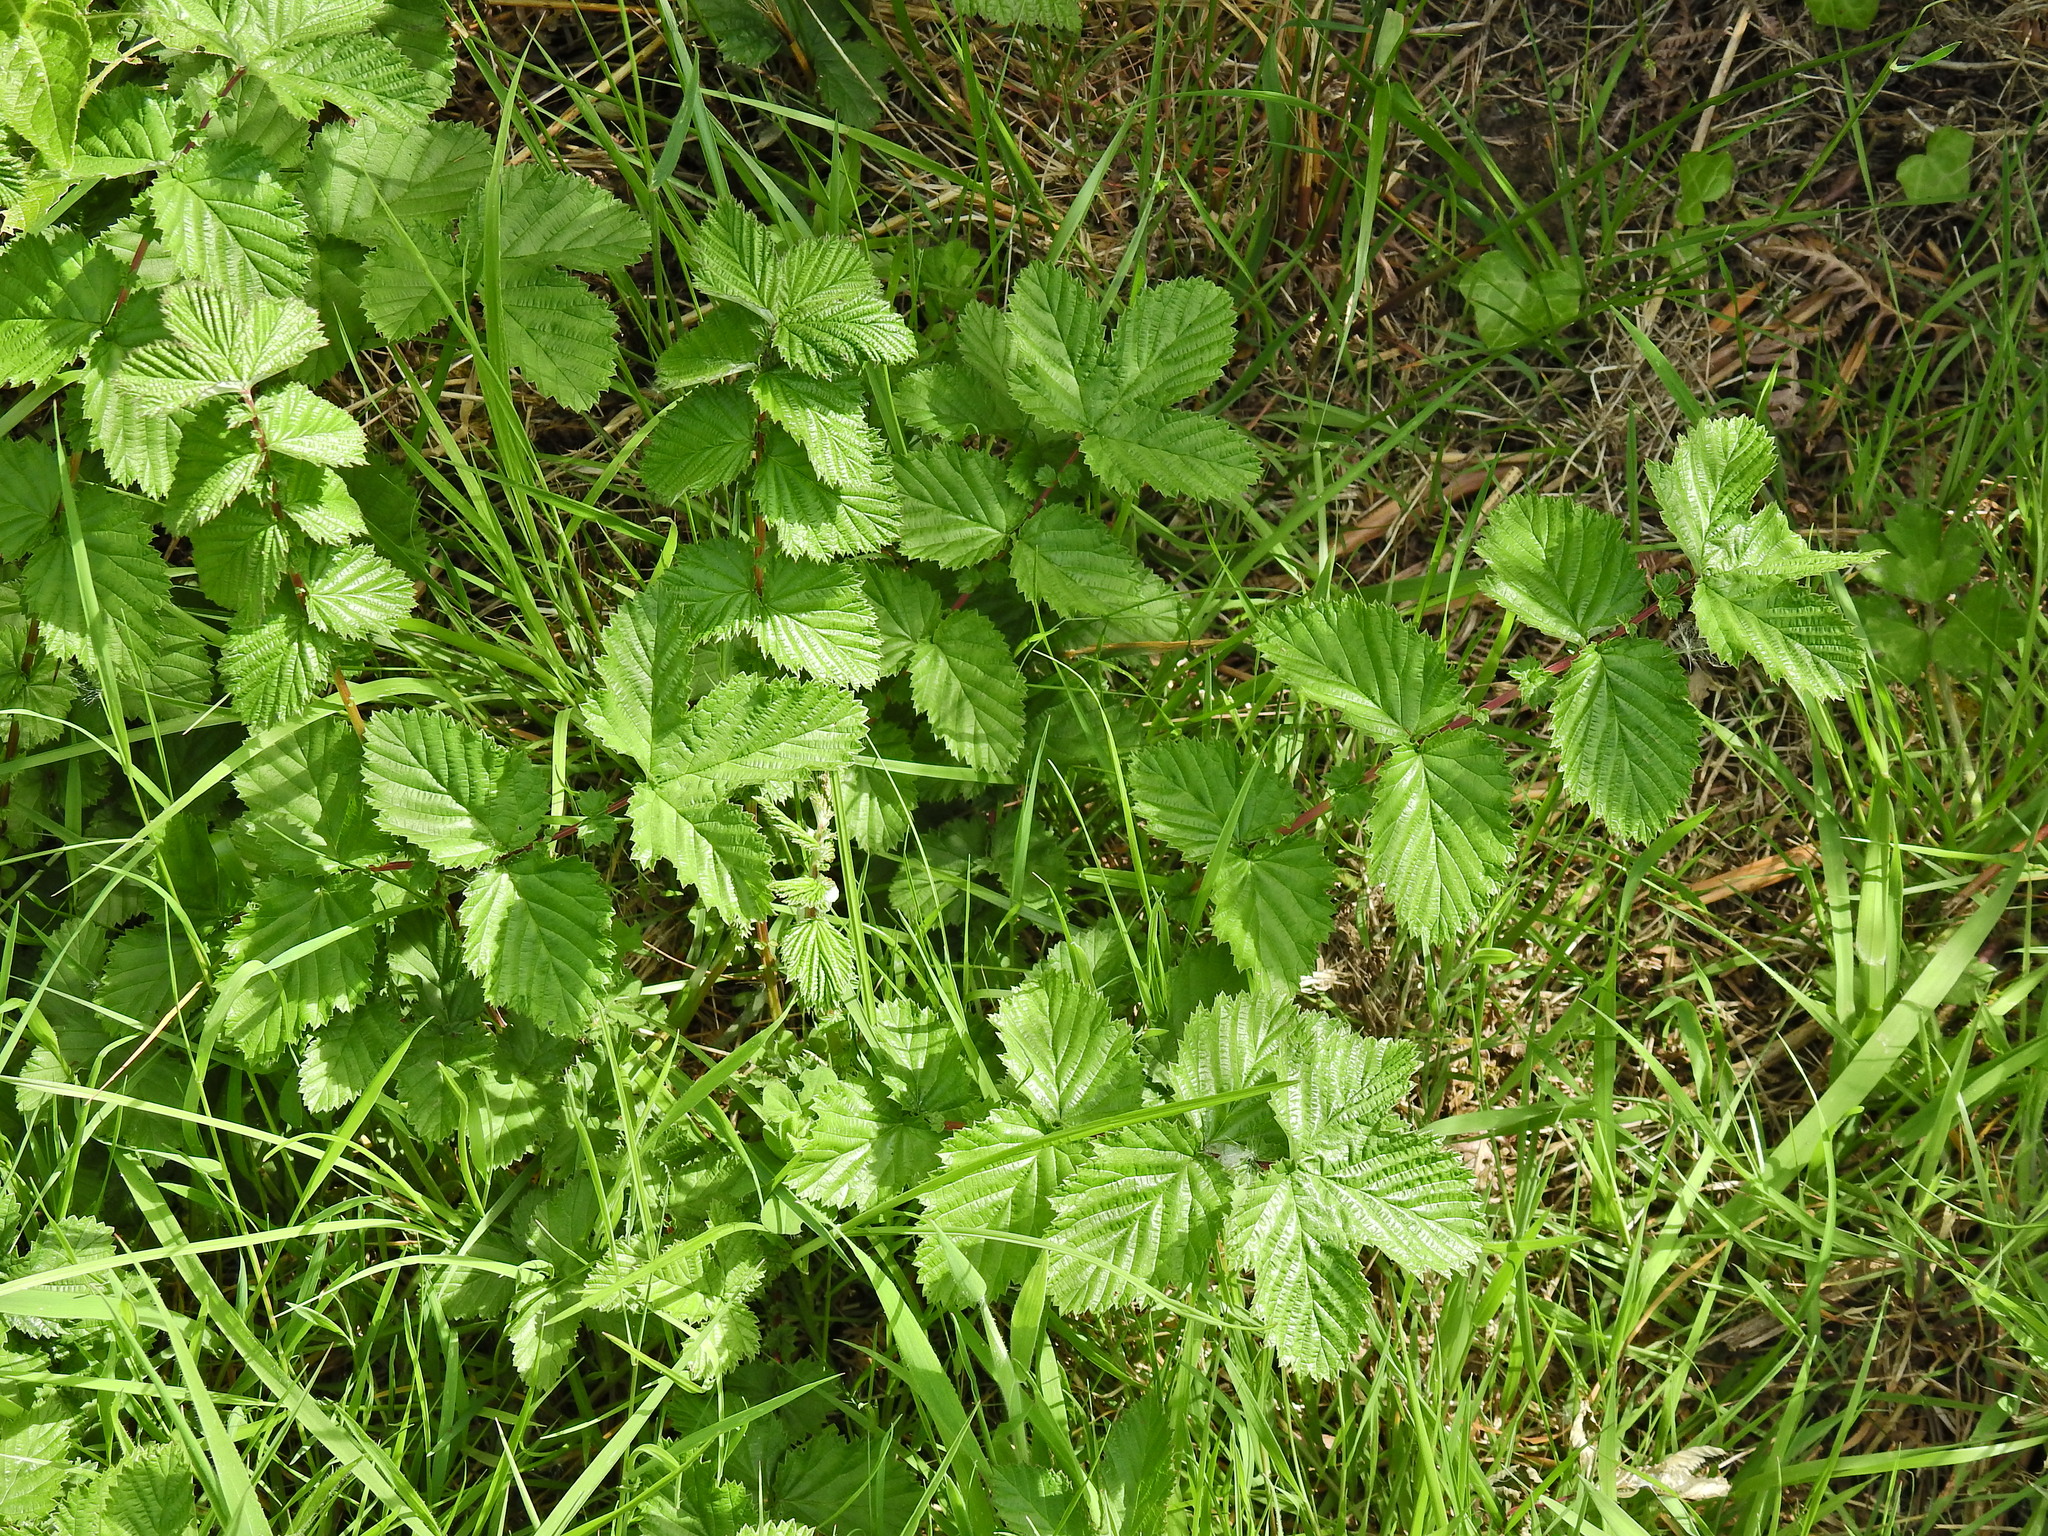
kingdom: Plantae
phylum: Tracheophyta
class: Magnoliopsida
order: Rosales
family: Rosaceae
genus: Filipendula
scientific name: Filipendula ulmaria
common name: Meadowsweet
